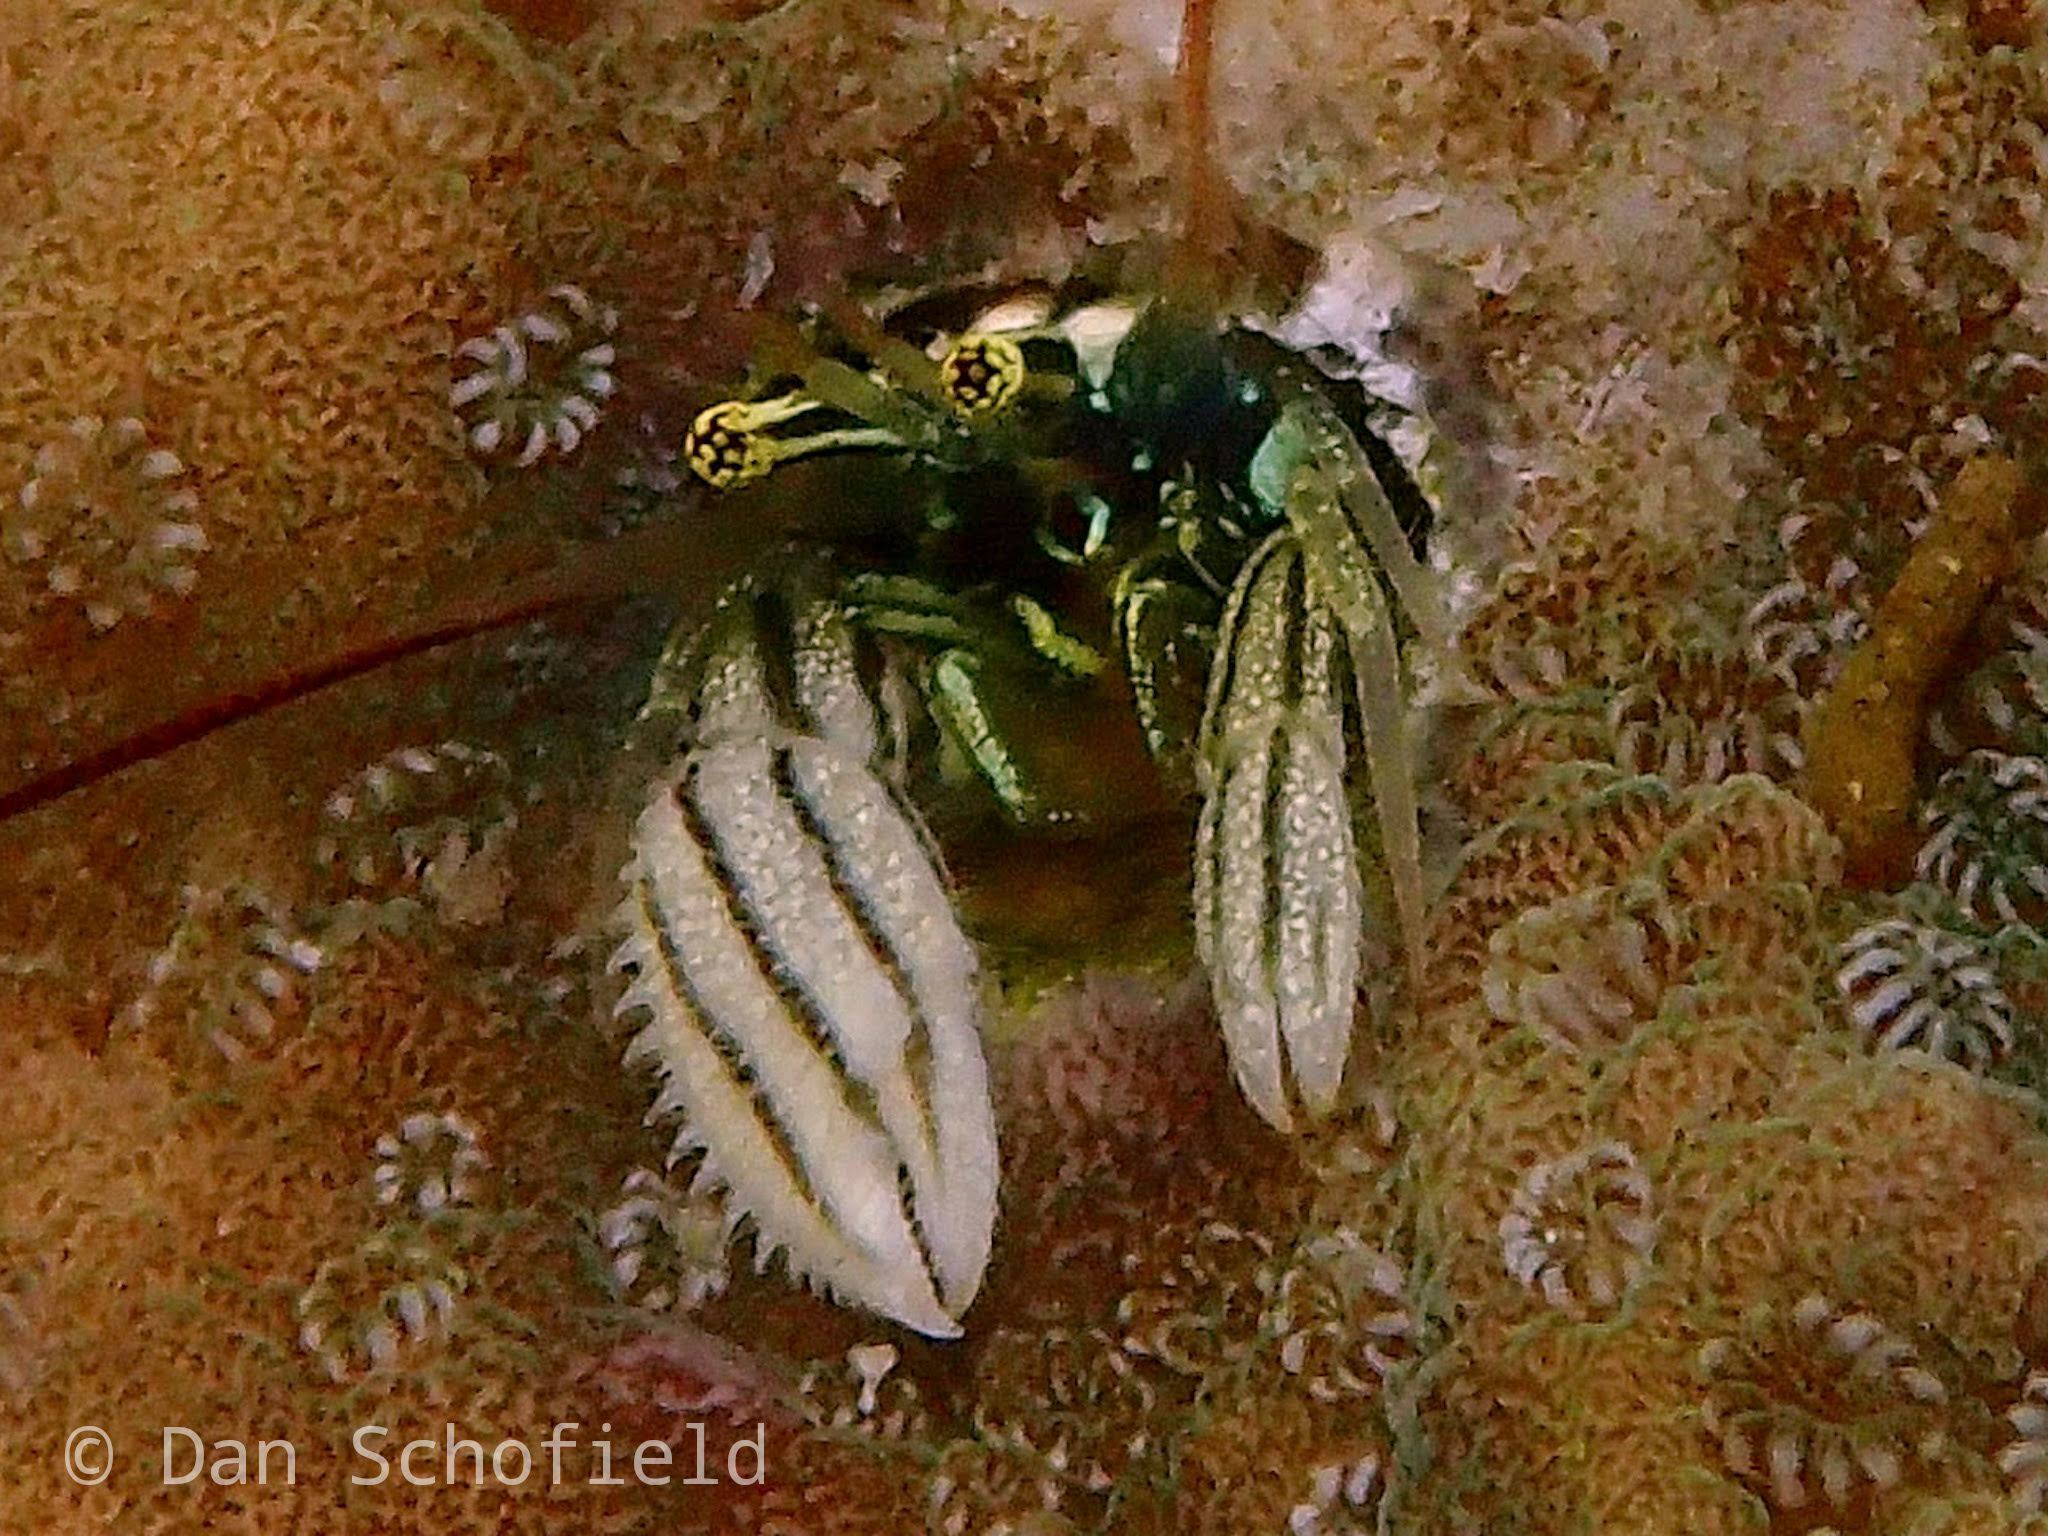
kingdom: Animalia
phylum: Arthropoda
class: Malacostraca
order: Decapoda
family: Paguridae
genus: Paguritta
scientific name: Paguritta vittata
